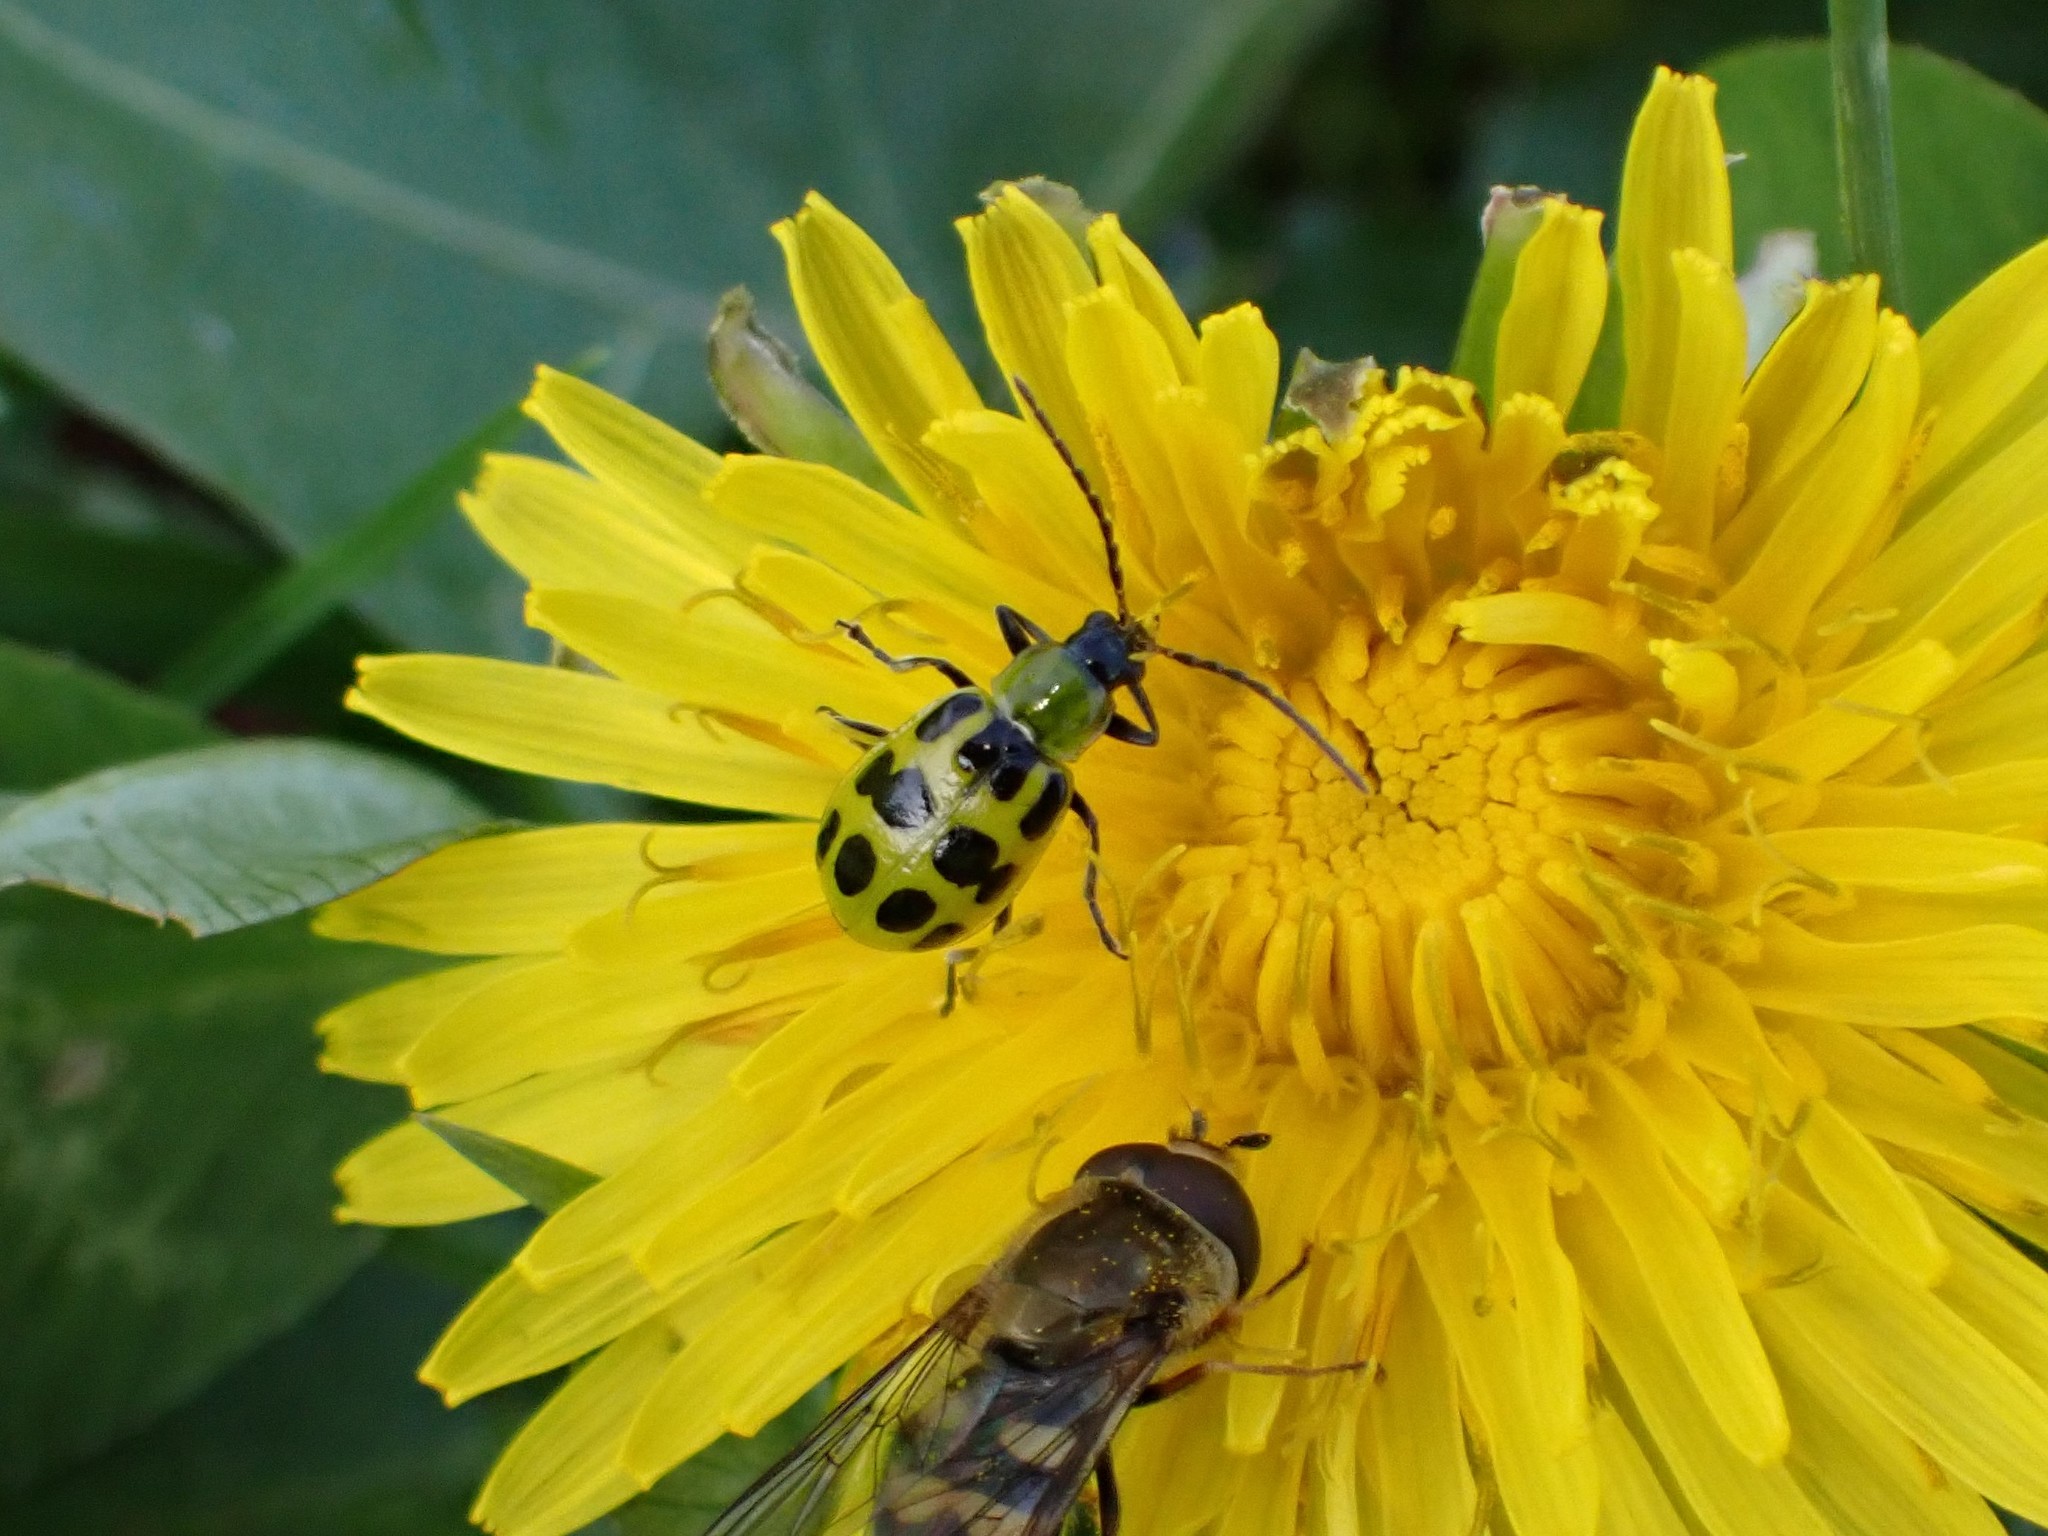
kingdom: Animalia
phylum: Arthropoda
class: Insecta
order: Coleoptera
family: Chrysomelidae
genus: Diabrotica
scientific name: Diabrotica undecimpunctata
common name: Spotted cucumber beetle
